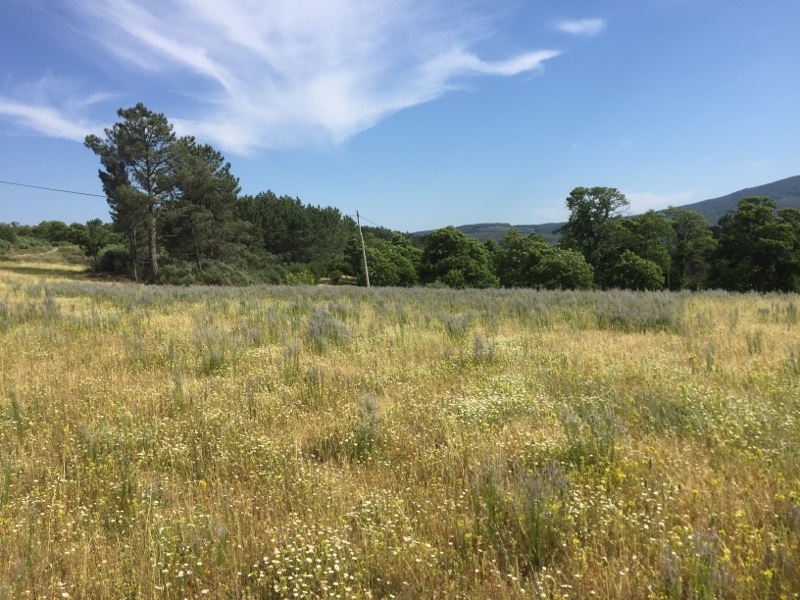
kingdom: Plantae
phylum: Tracheophyta
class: Magnoliopsida
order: Lamiales
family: Plantaginaceae
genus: Anarrhinum
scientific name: Anarrhinum bellidifolium
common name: Daisy-leaved toadflax
